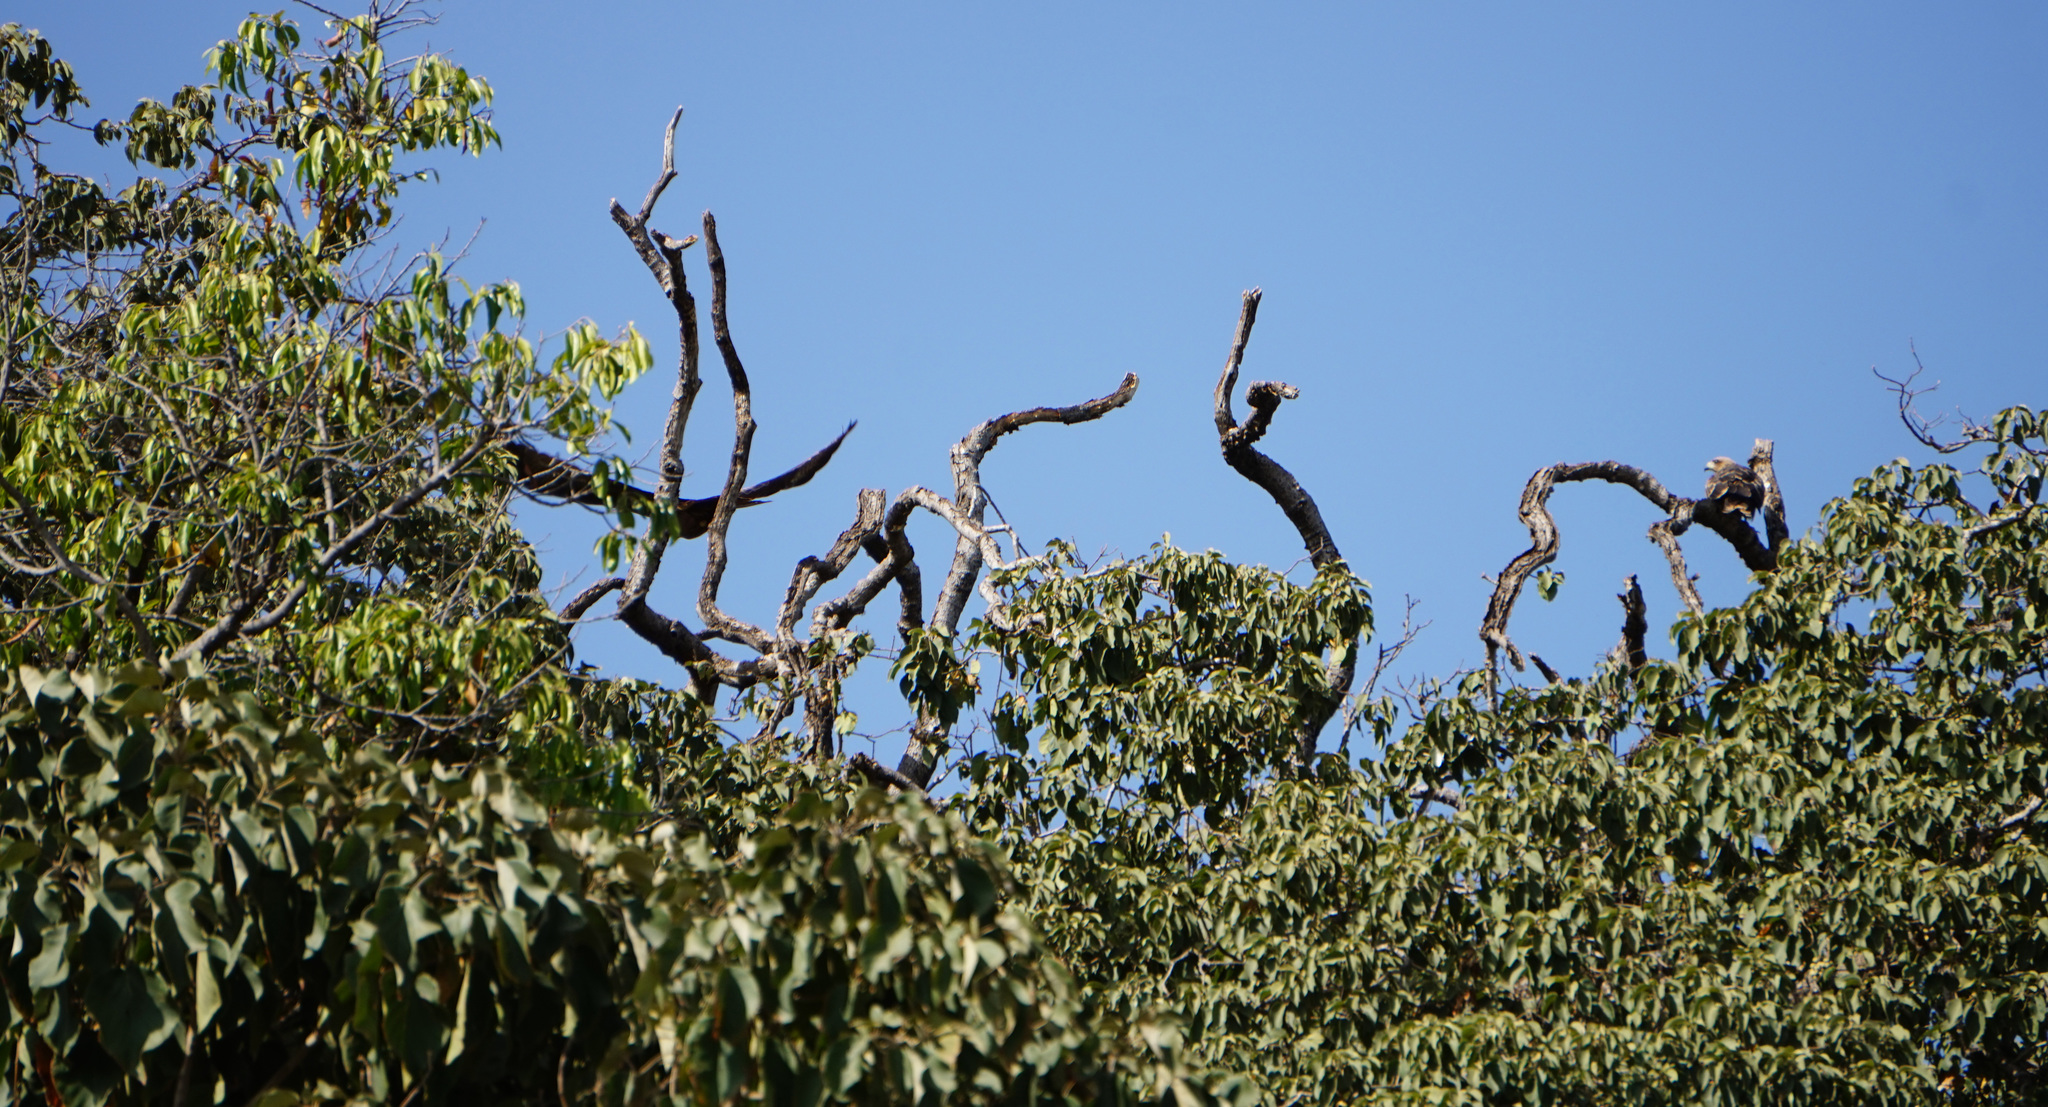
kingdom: Animalia
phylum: Chordata
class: Aves
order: Accipitriformes
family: Accipitridae
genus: Milvus
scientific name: Milvus migrans
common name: Black kite
